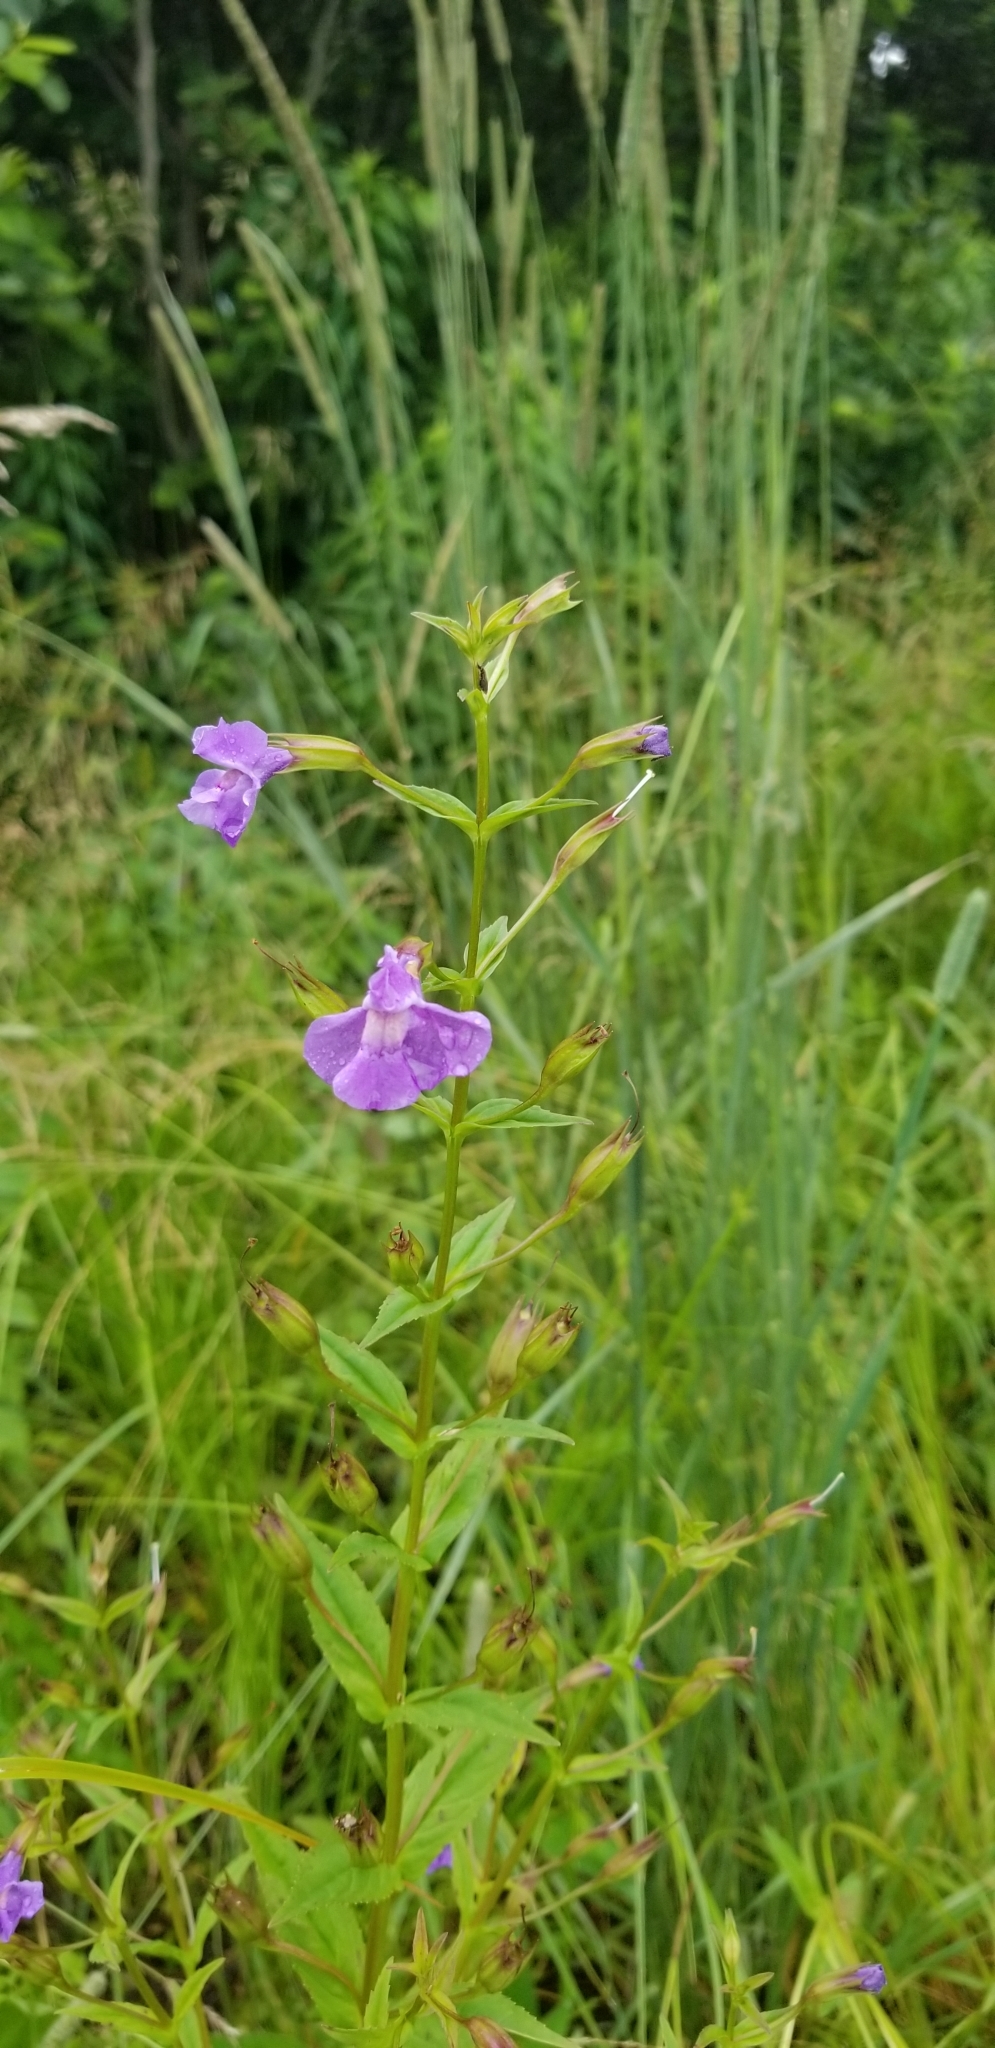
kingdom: Plantae
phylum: Tracheophyta
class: Magnoliopsida
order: Lamiales
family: Phrymaceae
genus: Mimulus
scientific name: Mimulus ringens
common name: Allegheny monkeyflower
